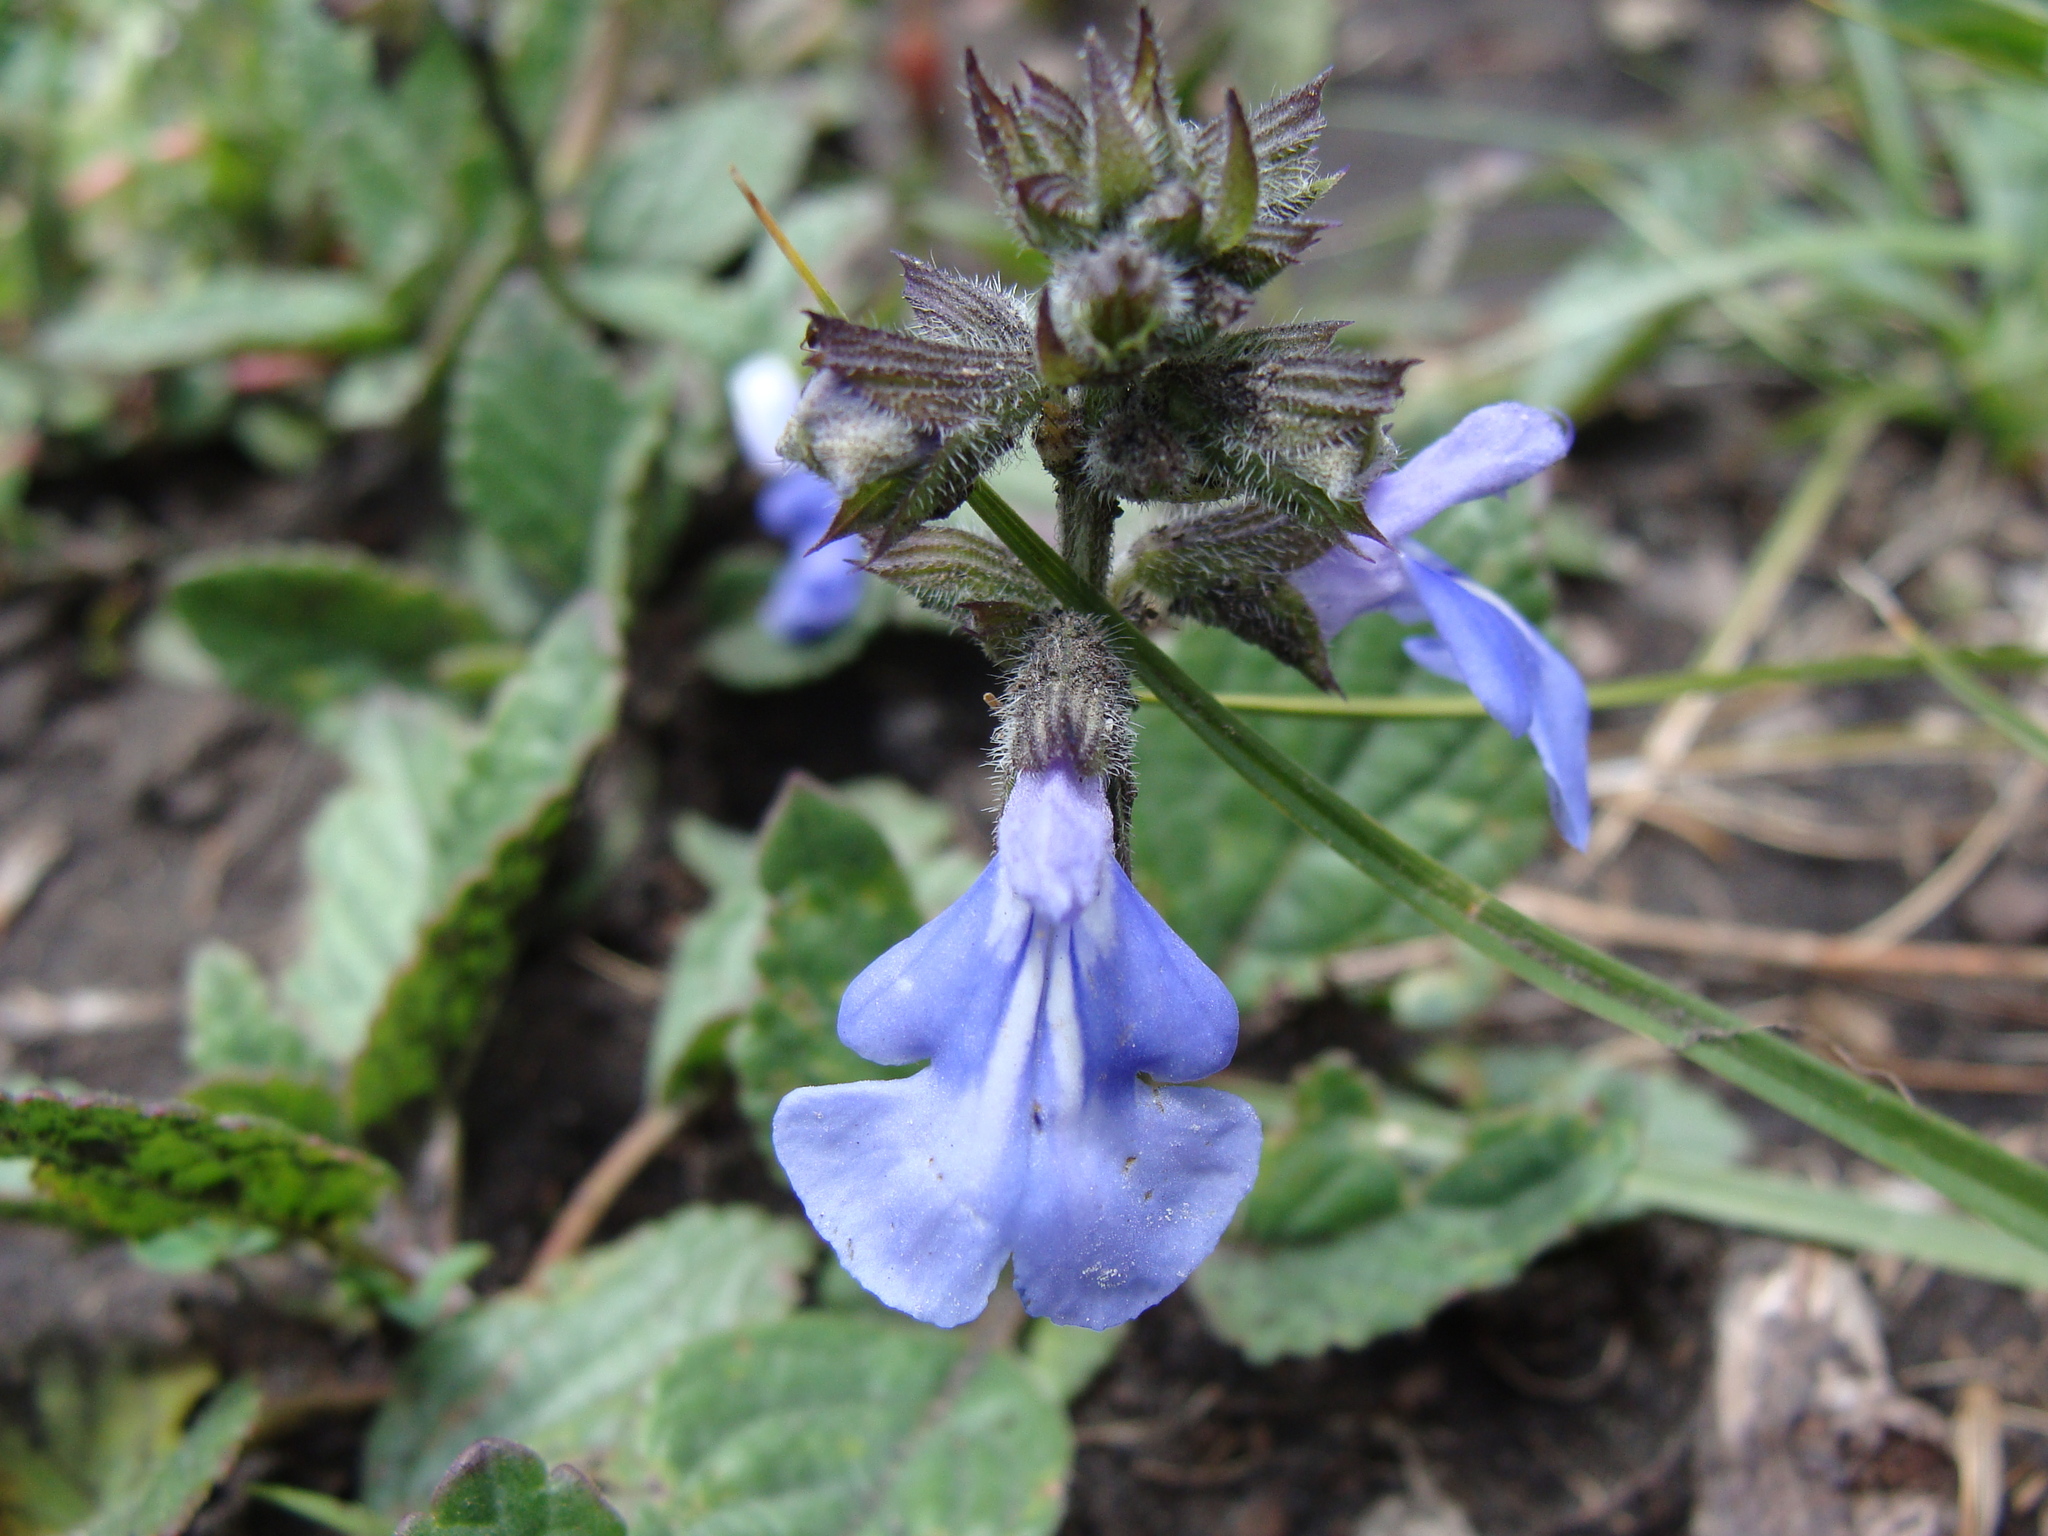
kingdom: Plantae
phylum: Tracheophyta
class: Magnoliopsida
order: Lamiales
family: Lamiaceae
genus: Salvia
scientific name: Salvia prunelloides
